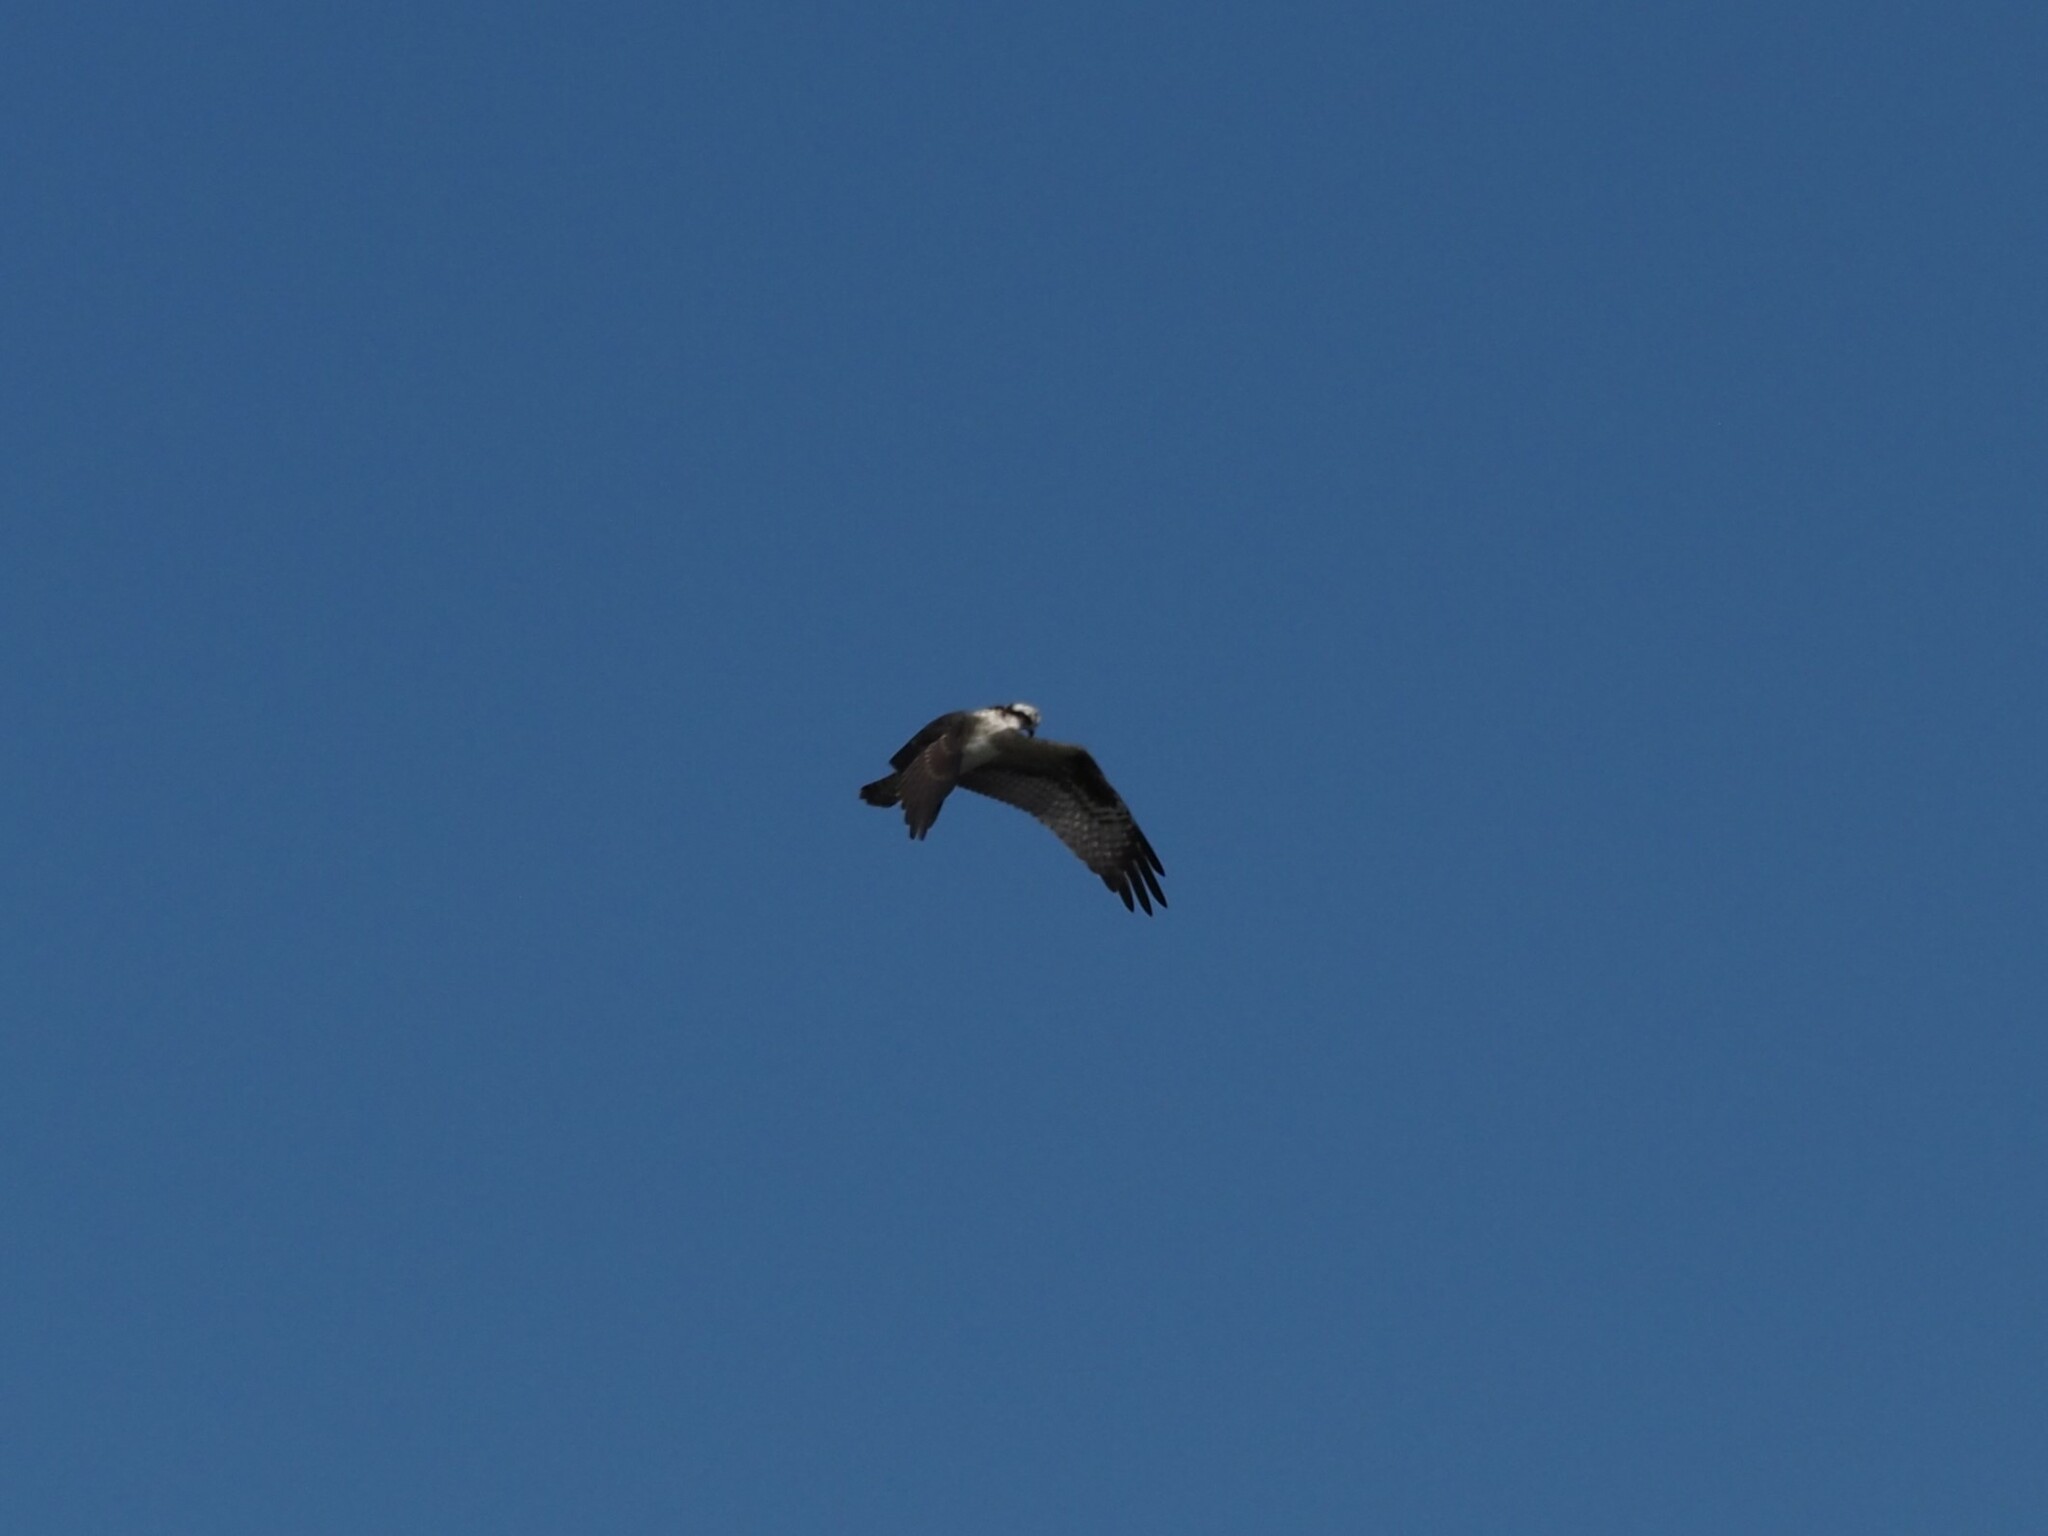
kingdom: Animalia
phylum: Chordata
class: Aves
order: Accipitriformes
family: Pandionidae
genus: Pandion
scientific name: Pandion haliaetus
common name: Osprey
